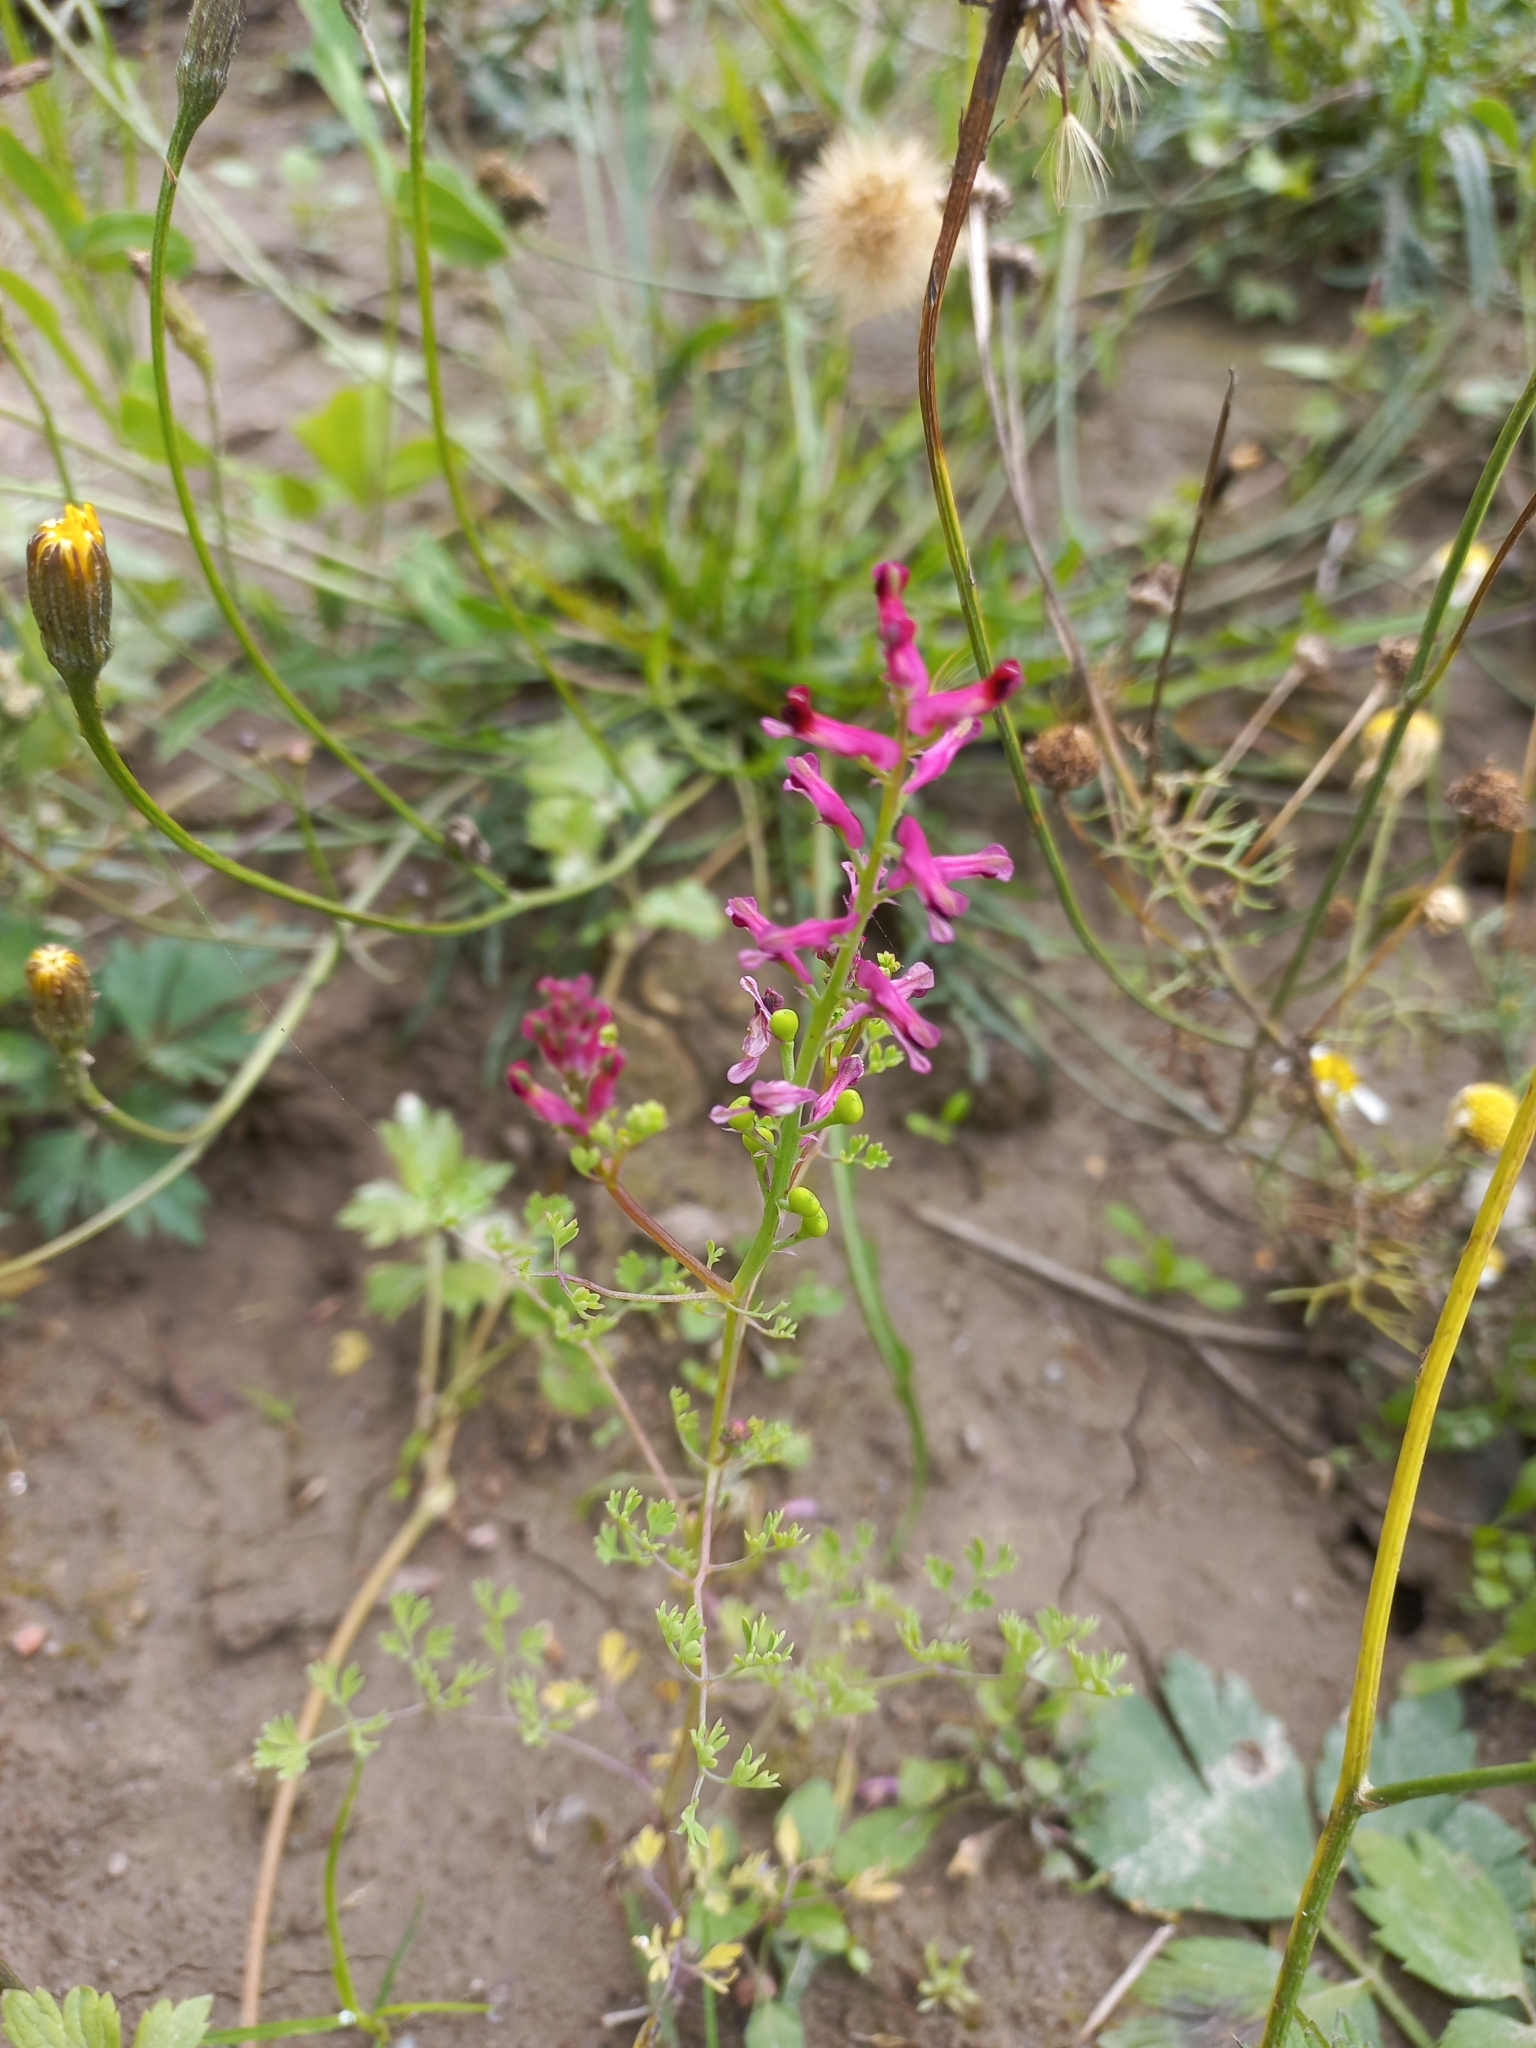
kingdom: Plantae
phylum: Tracheophyta
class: Magnoliopsida
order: Ranunculales
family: Papaveraceae
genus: Fumaria
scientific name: Fumaria officinalis
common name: Common fumitory
